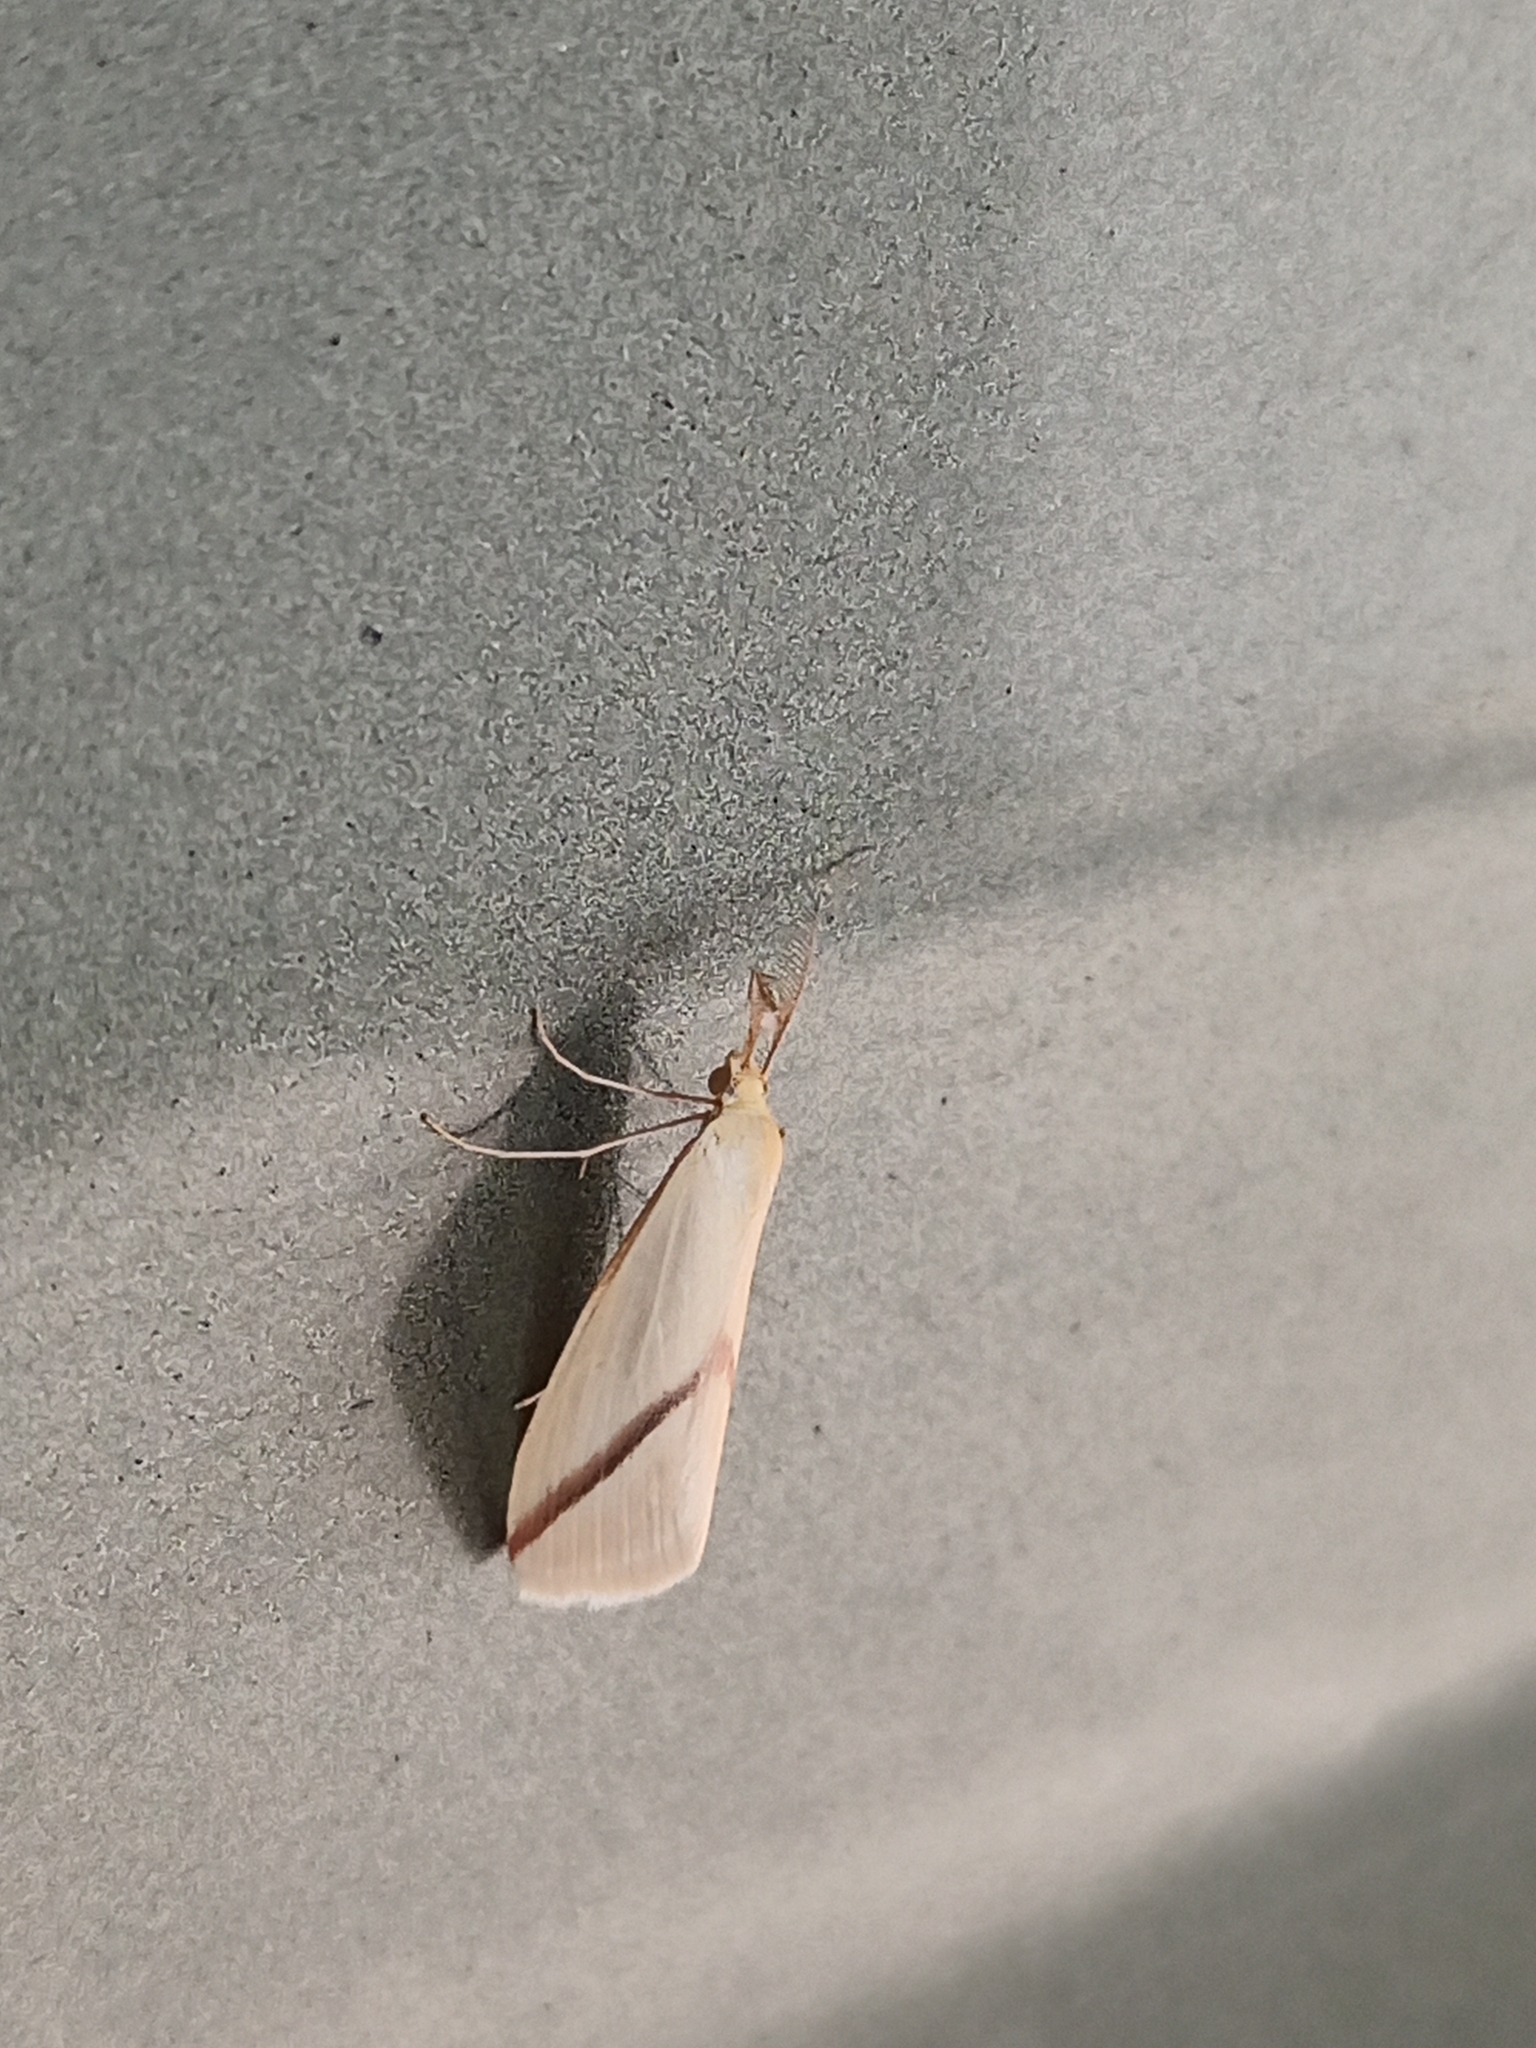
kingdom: Animalia
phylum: Arthropoda
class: Insecta
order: Lepidoptera
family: Geometridae
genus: Rhodometra
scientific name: Rhodometra sacraria
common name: Vestal
